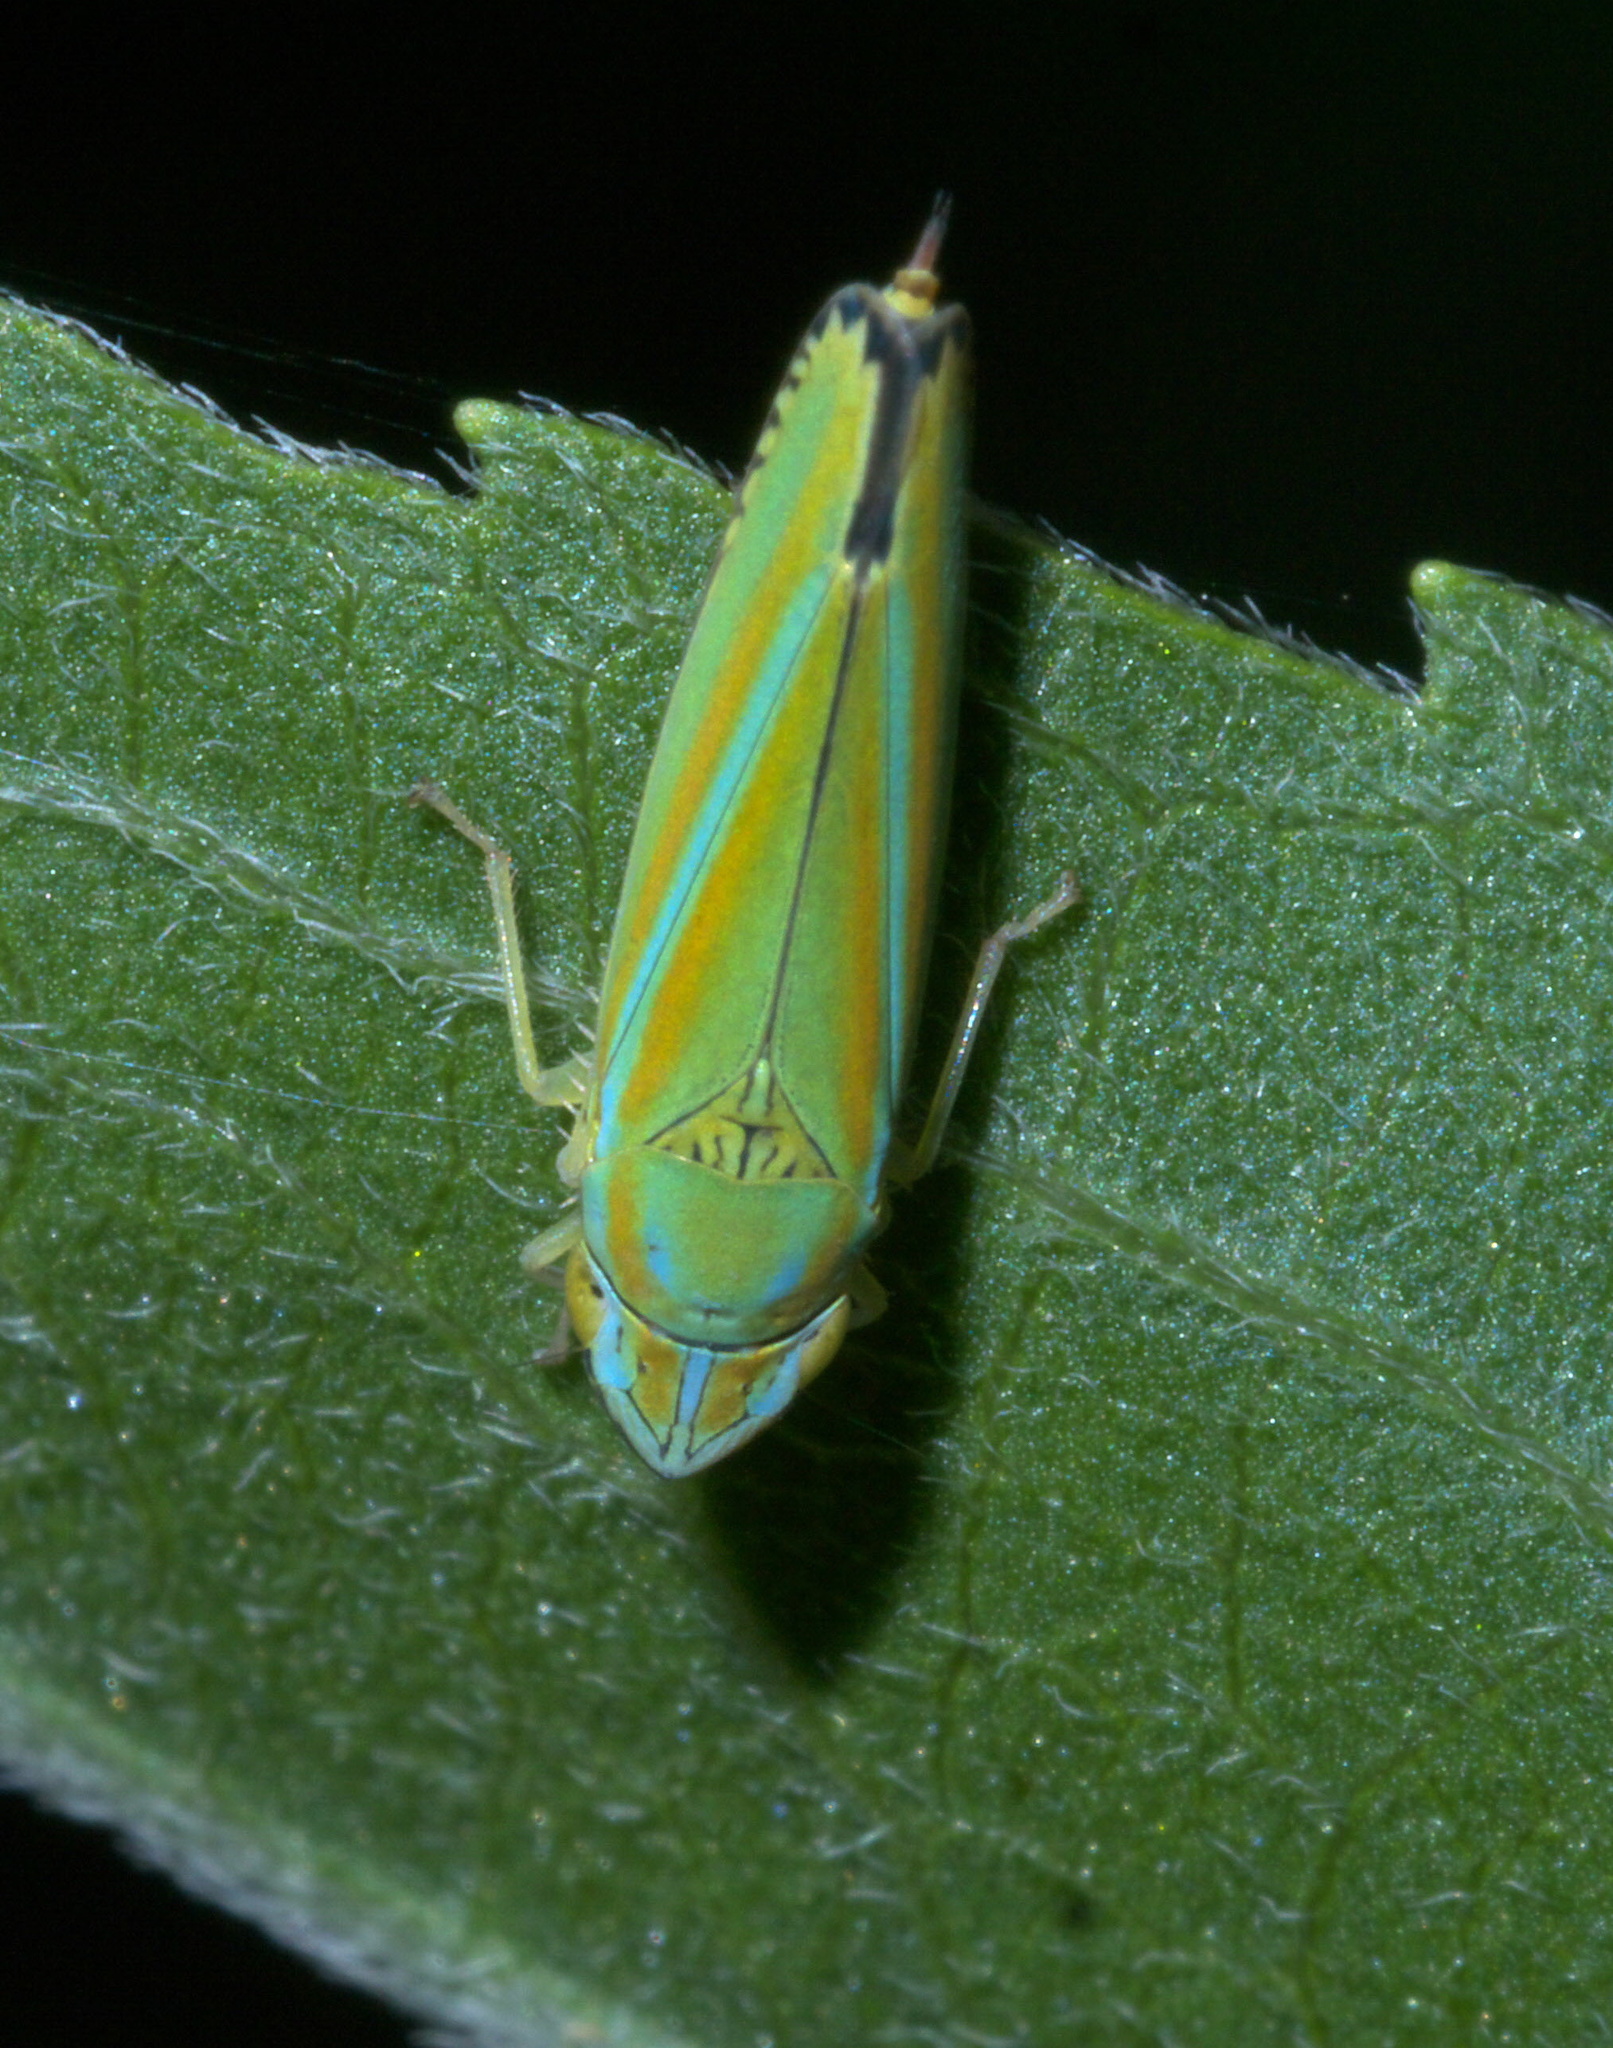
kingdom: Animalia
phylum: Arthropoda
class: Insecta
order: Hemiptera
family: Cicadellidae
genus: Graphocephala
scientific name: Graphocephala versuta
